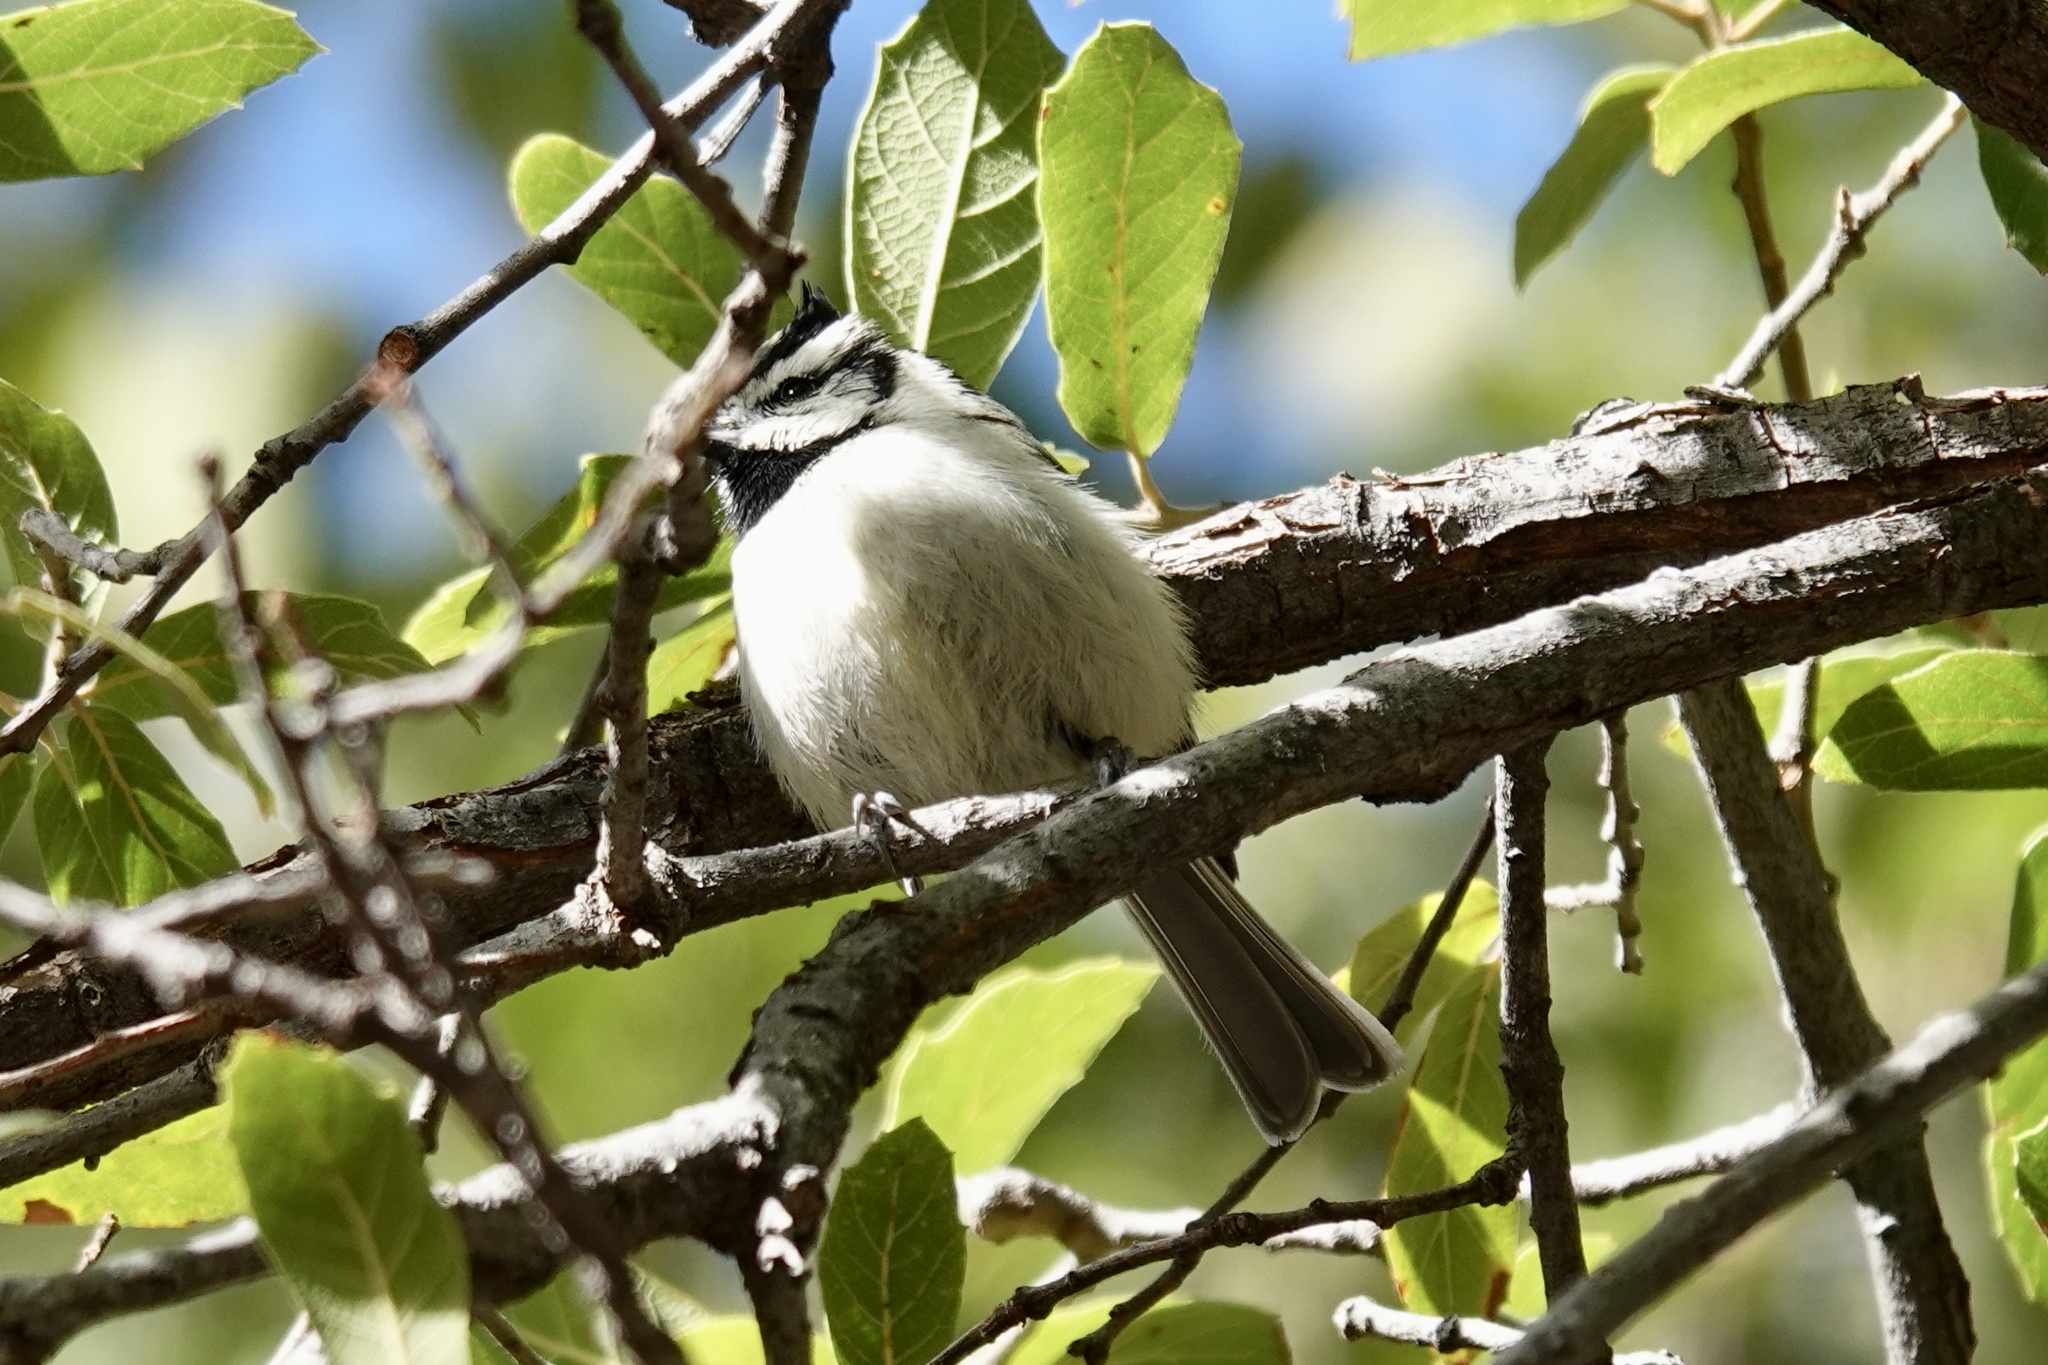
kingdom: Animalia
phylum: Chordata
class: Aves
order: Passeriformes
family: Paridae
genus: Baeolophus
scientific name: Baeolophus wollweberi
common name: Bridled titmouse
